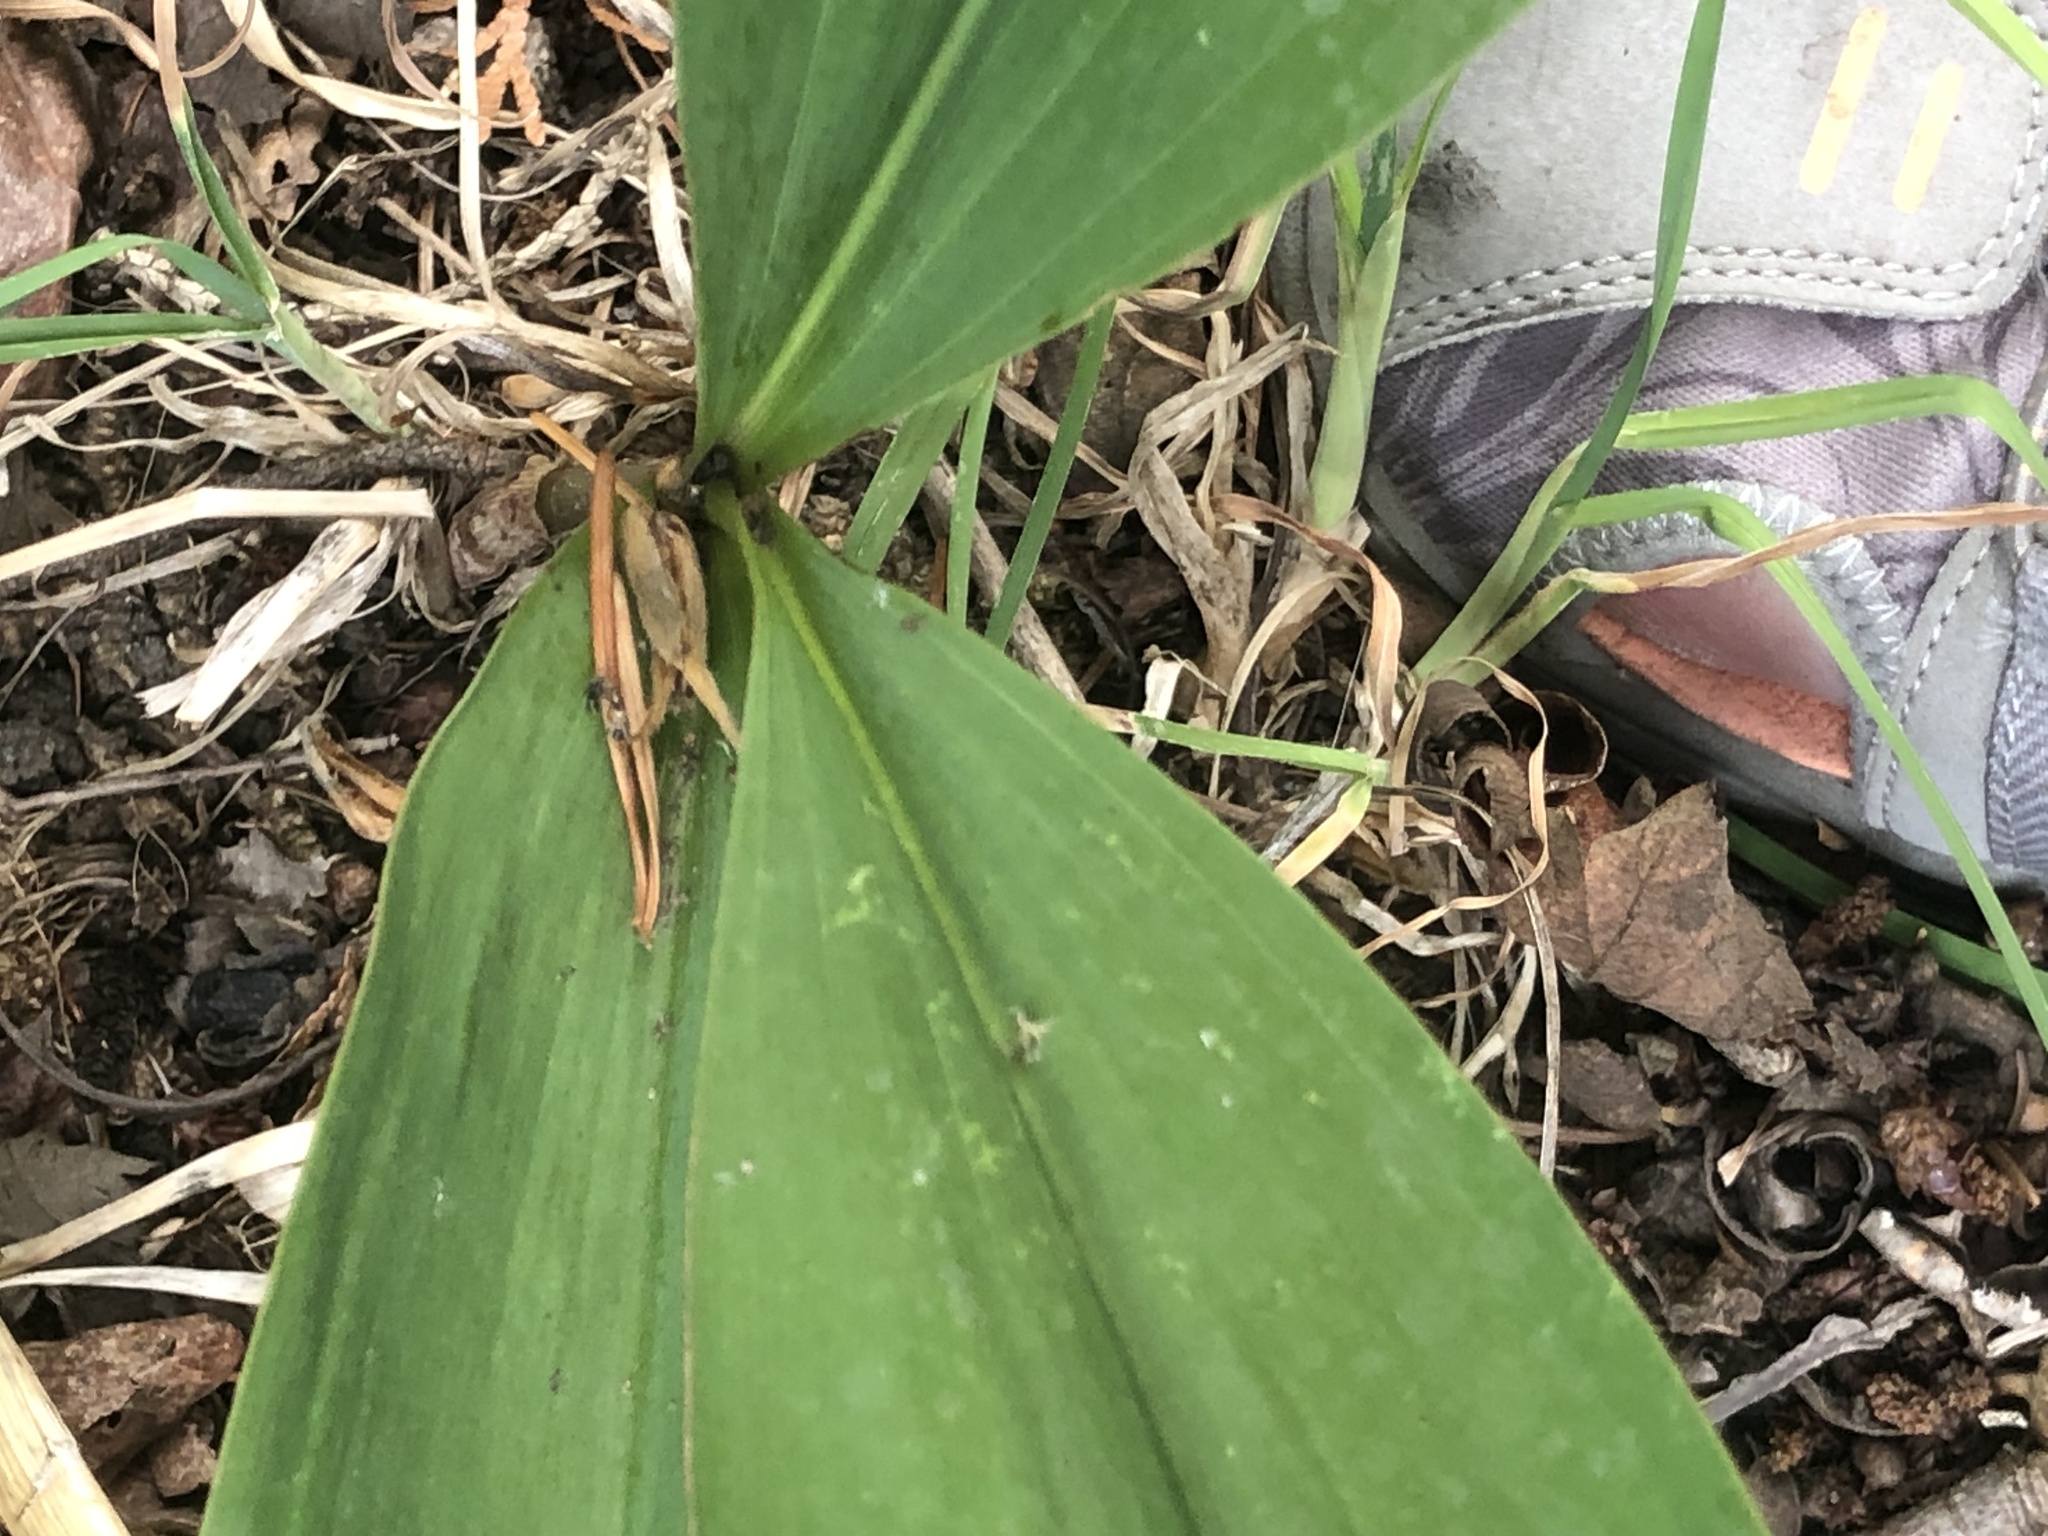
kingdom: Plantae
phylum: Tracheophyta
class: Liliopsida
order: Asparagales
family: Asparagaceae
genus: Convallaria
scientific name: Convallaria majalis
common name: Lily-of-the-valley
